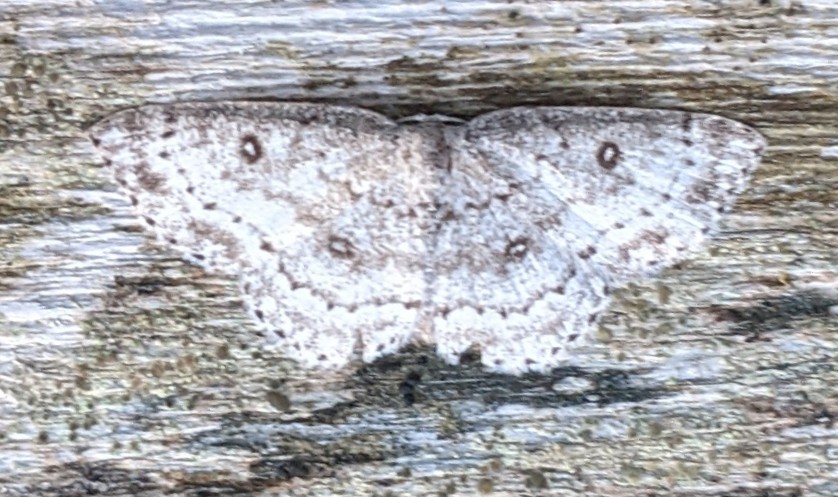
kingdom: Animalia
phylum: Arthropoda
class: Insecta
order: Lepidoptera
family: Geometridae
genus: Cyclophora
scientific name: Cyclophora pendulinaria
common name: Sweet fern geometer
